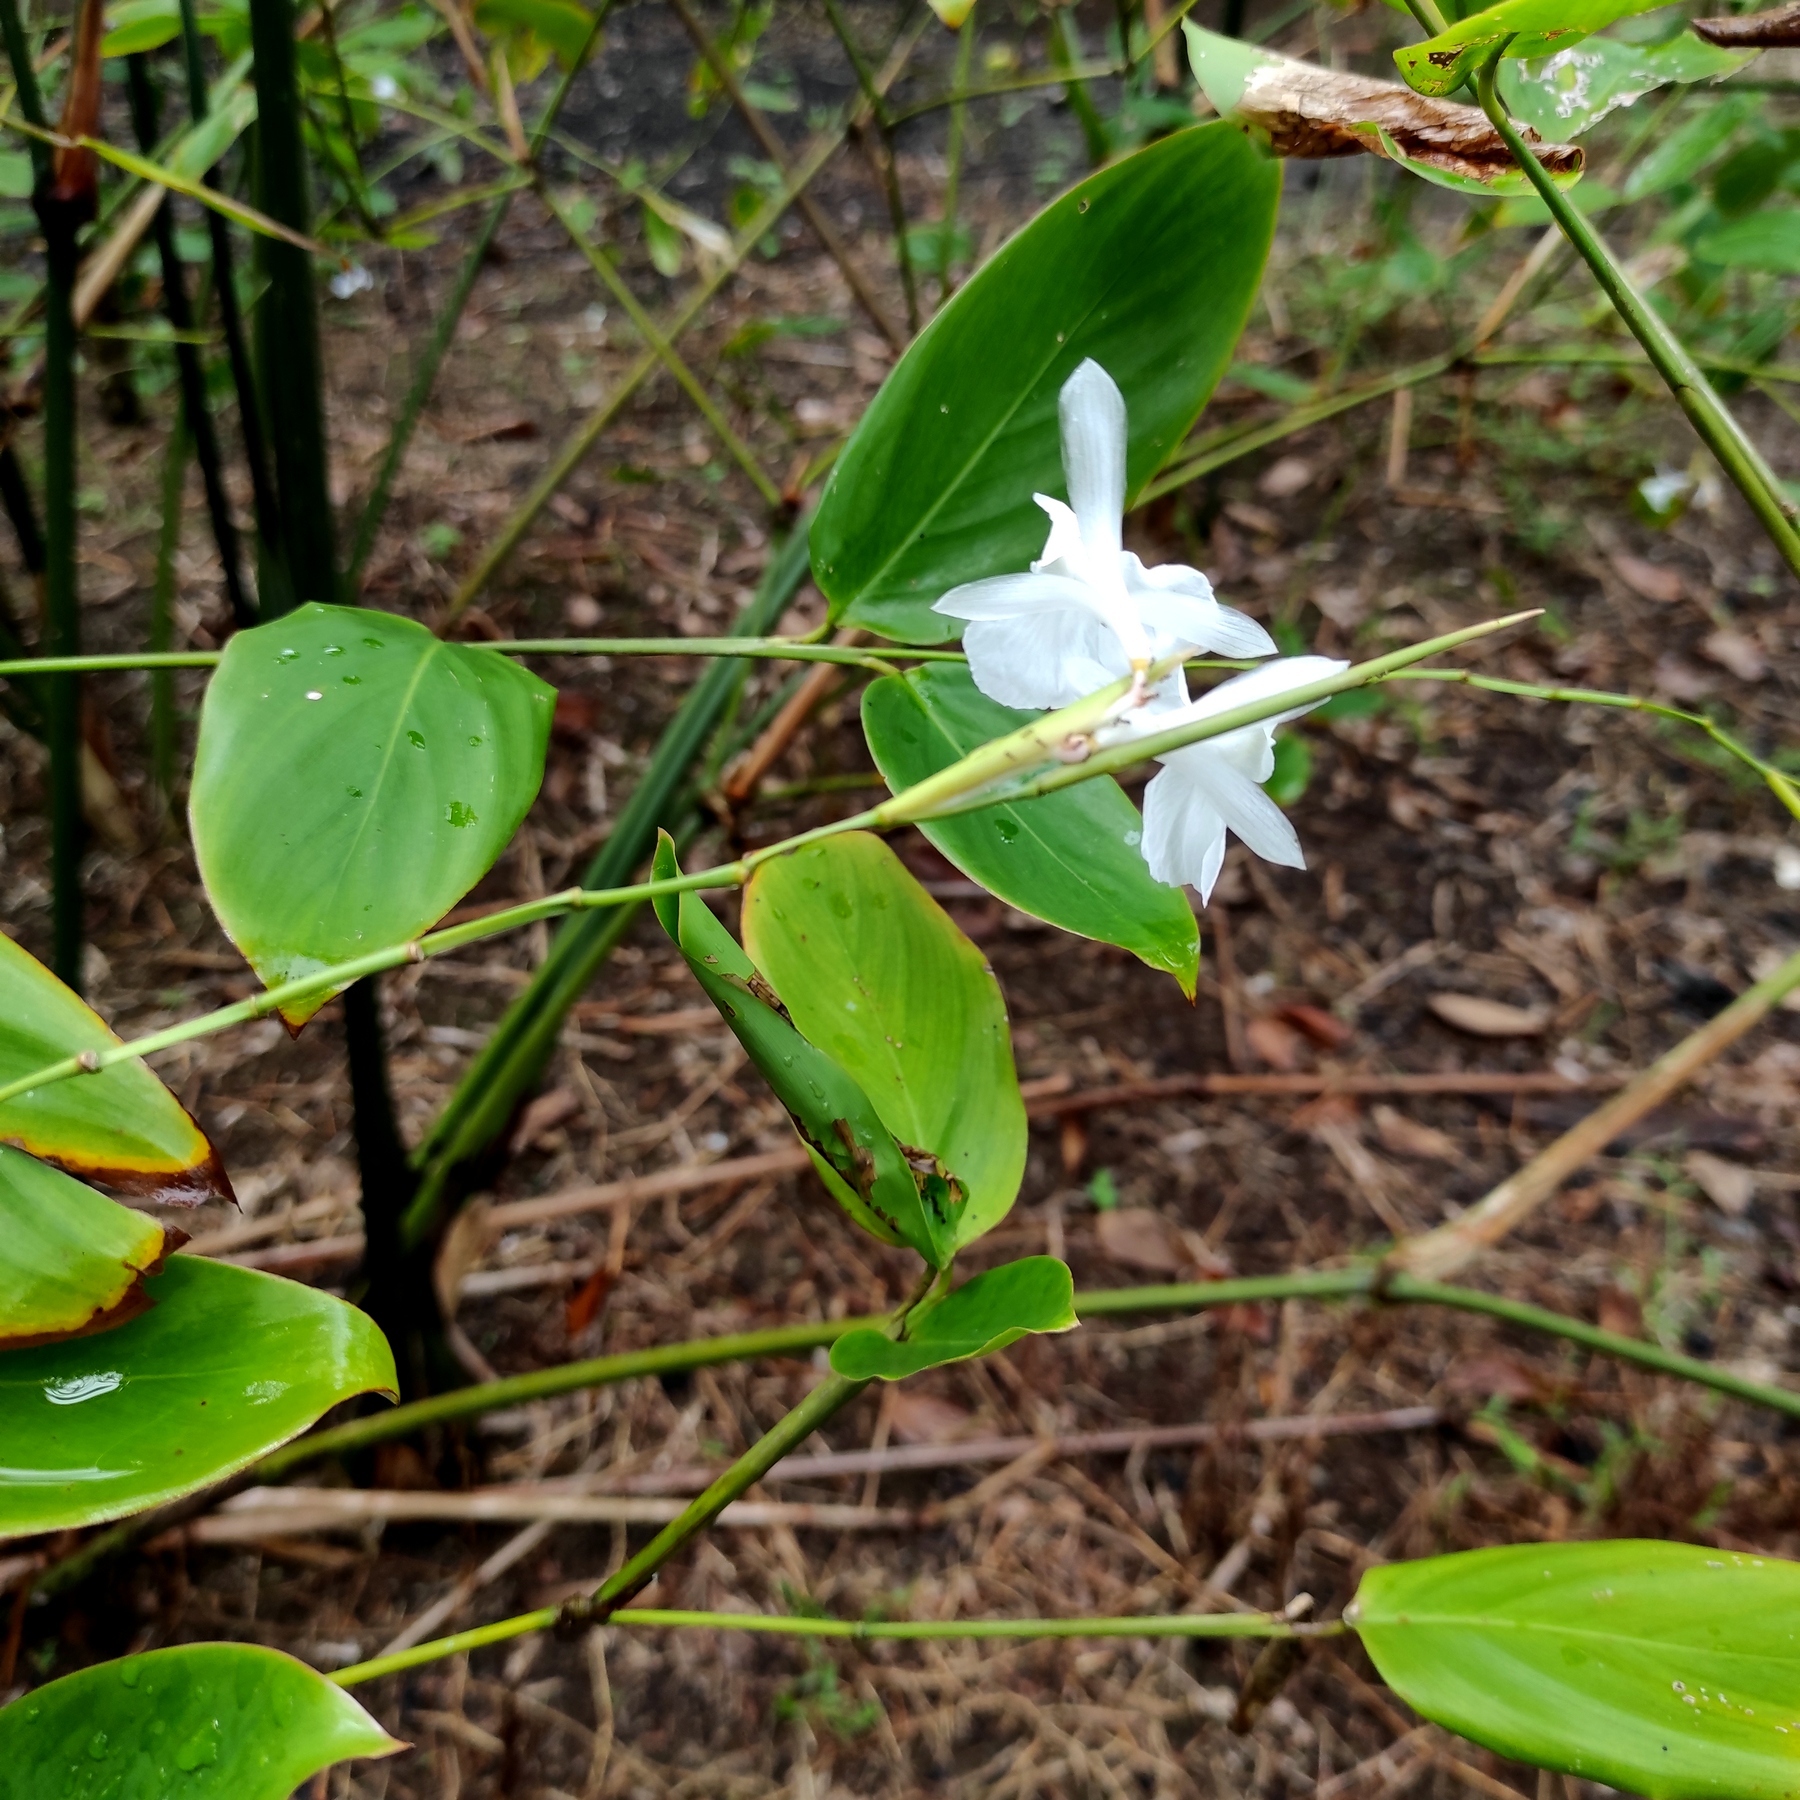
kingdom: Plantae
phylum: Tracheophyta
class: Liliopsida
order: Zingiberales
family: Marantaceae
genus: Donax
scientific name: Donax canniformis
